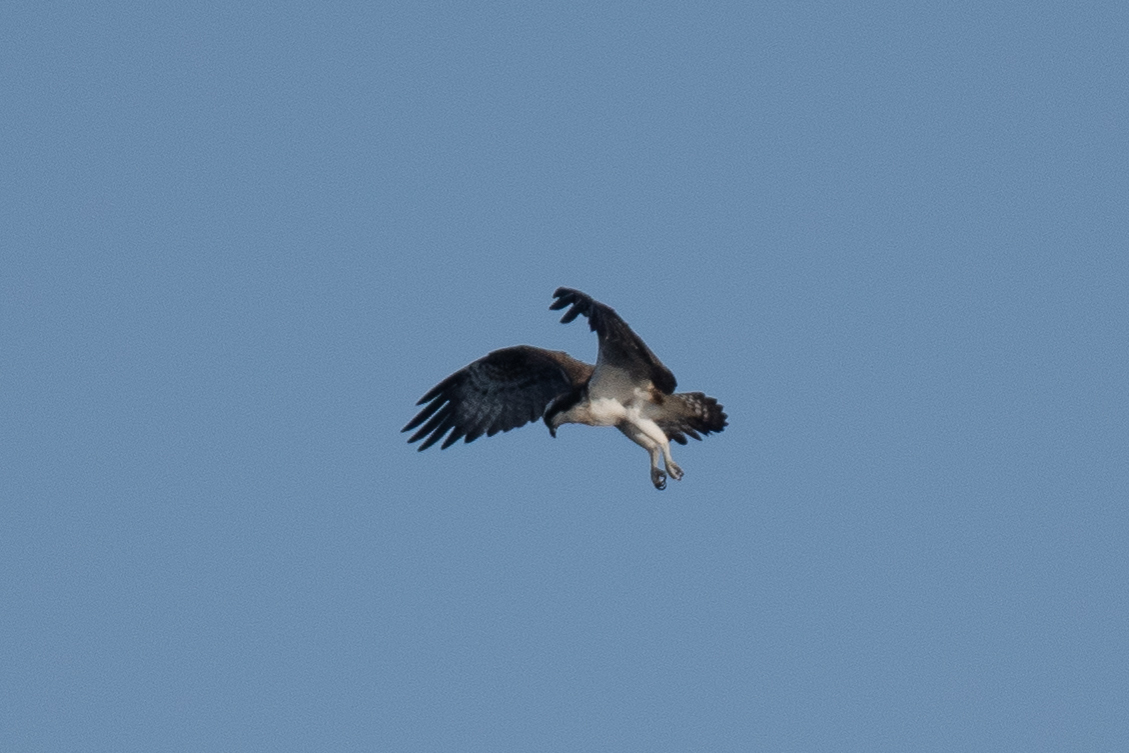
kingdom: Animalia
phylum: Chordata
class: Aves
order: Accipitriformes
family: Pandionidae
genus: Pandion
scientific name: Pandion haliaetus
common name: Osprey
